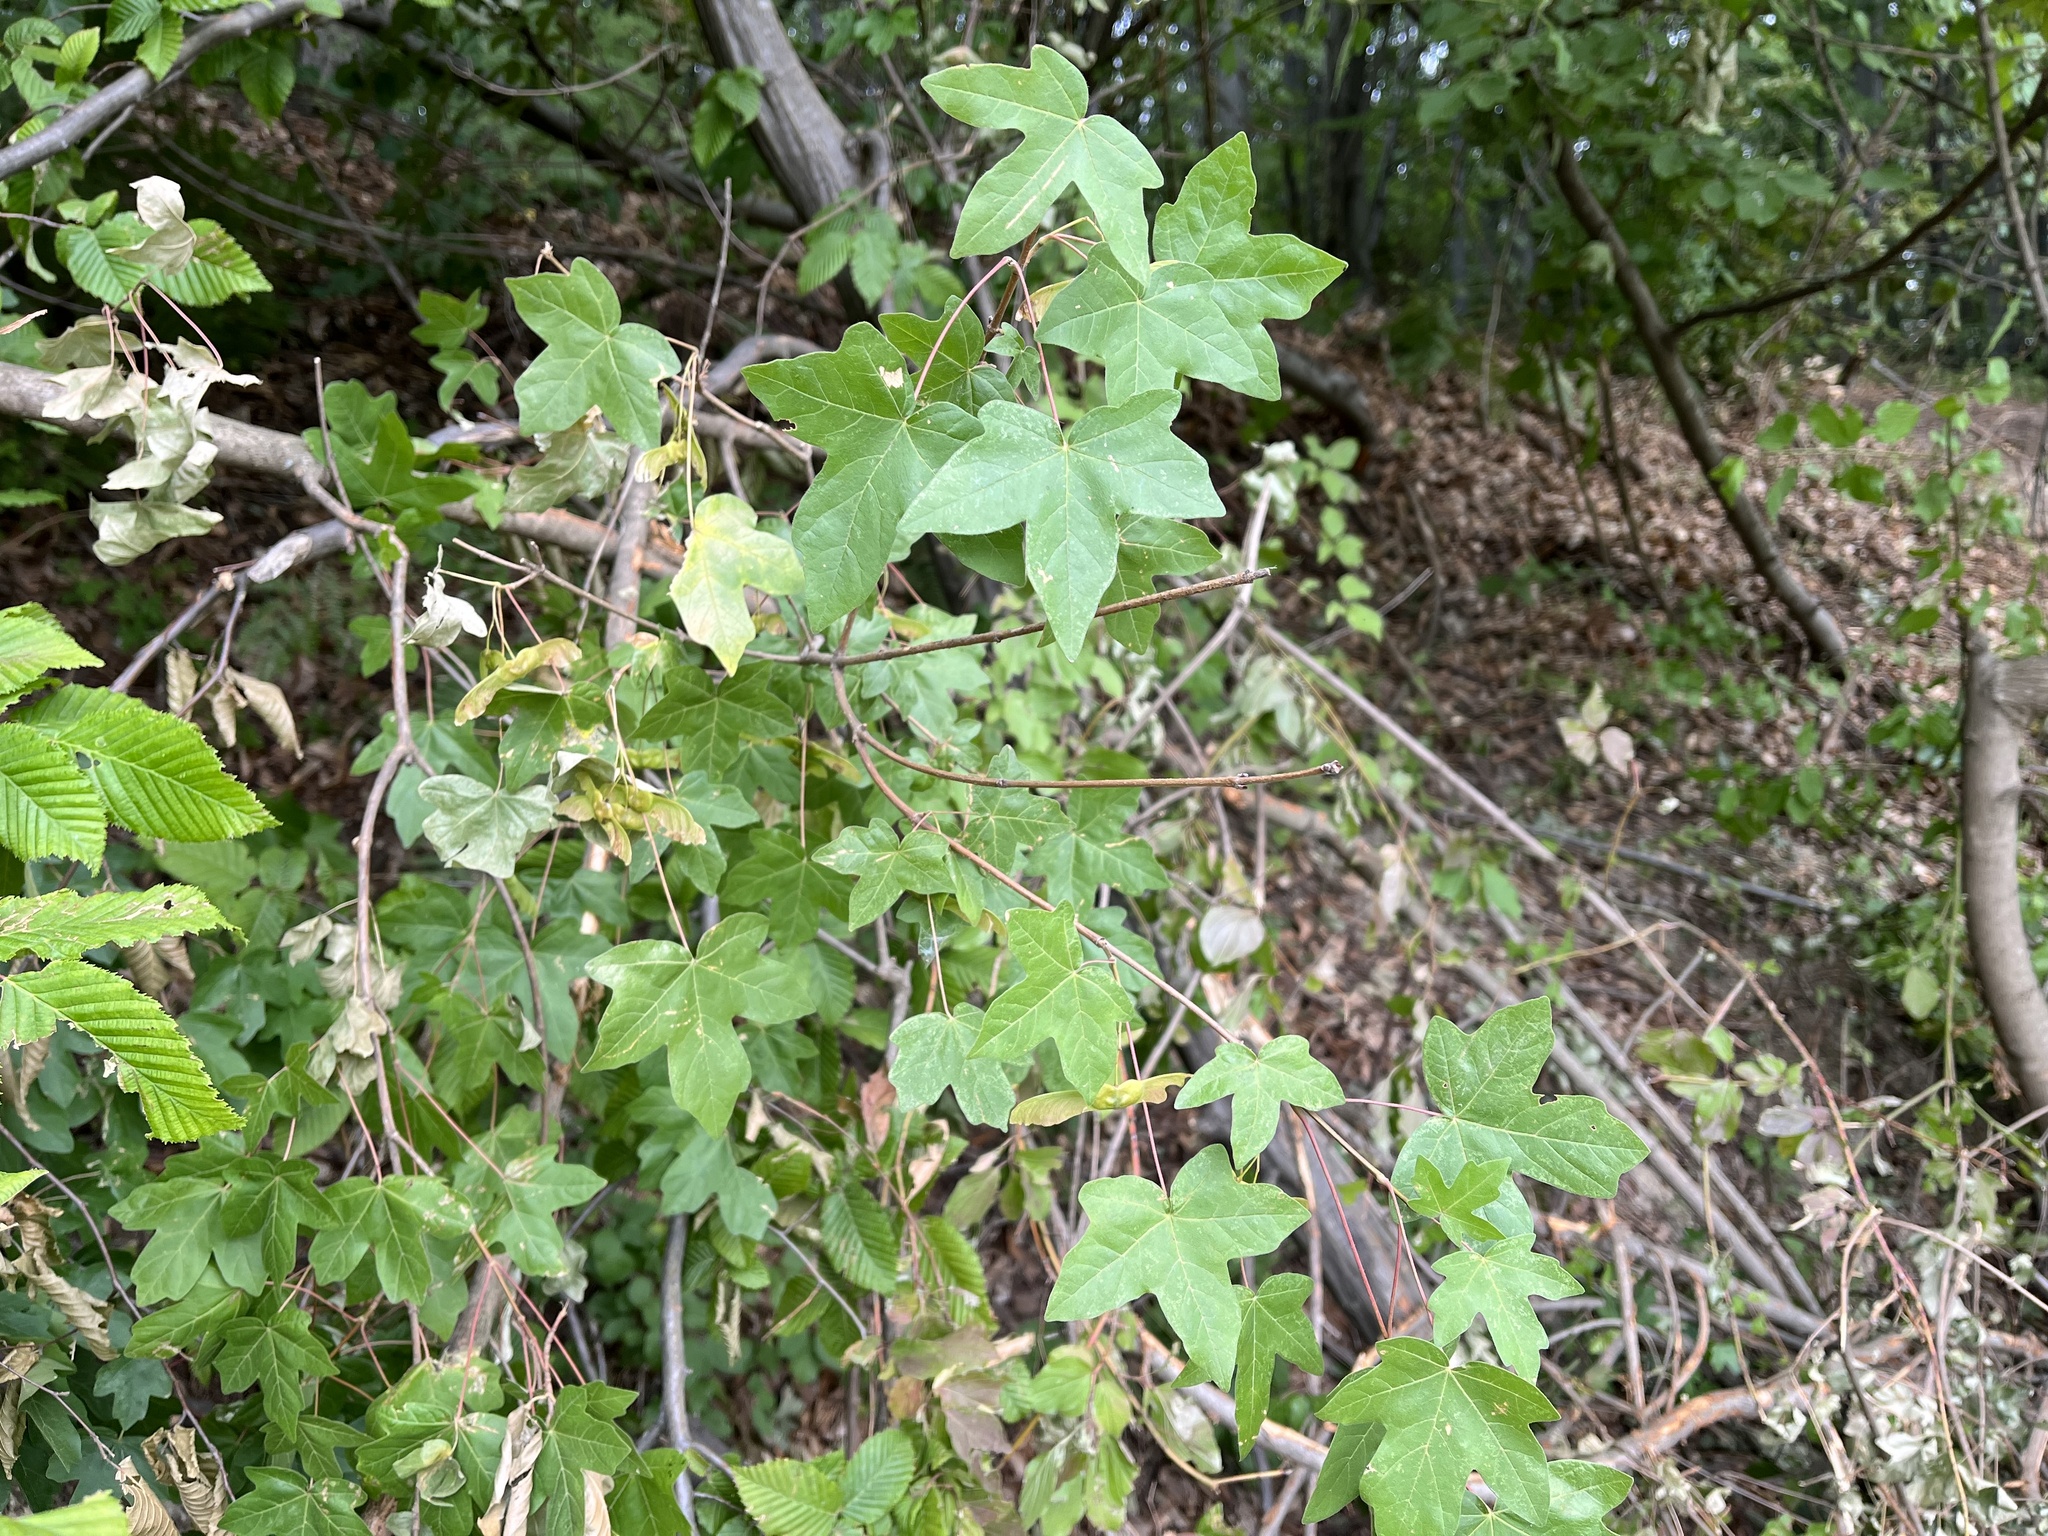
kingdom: Plantae
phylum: Tracheophyta
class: Magnoliopsida
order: Sapindales
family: Sapindaceae
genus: Acer
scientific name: Acer campestre
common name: Field maple
